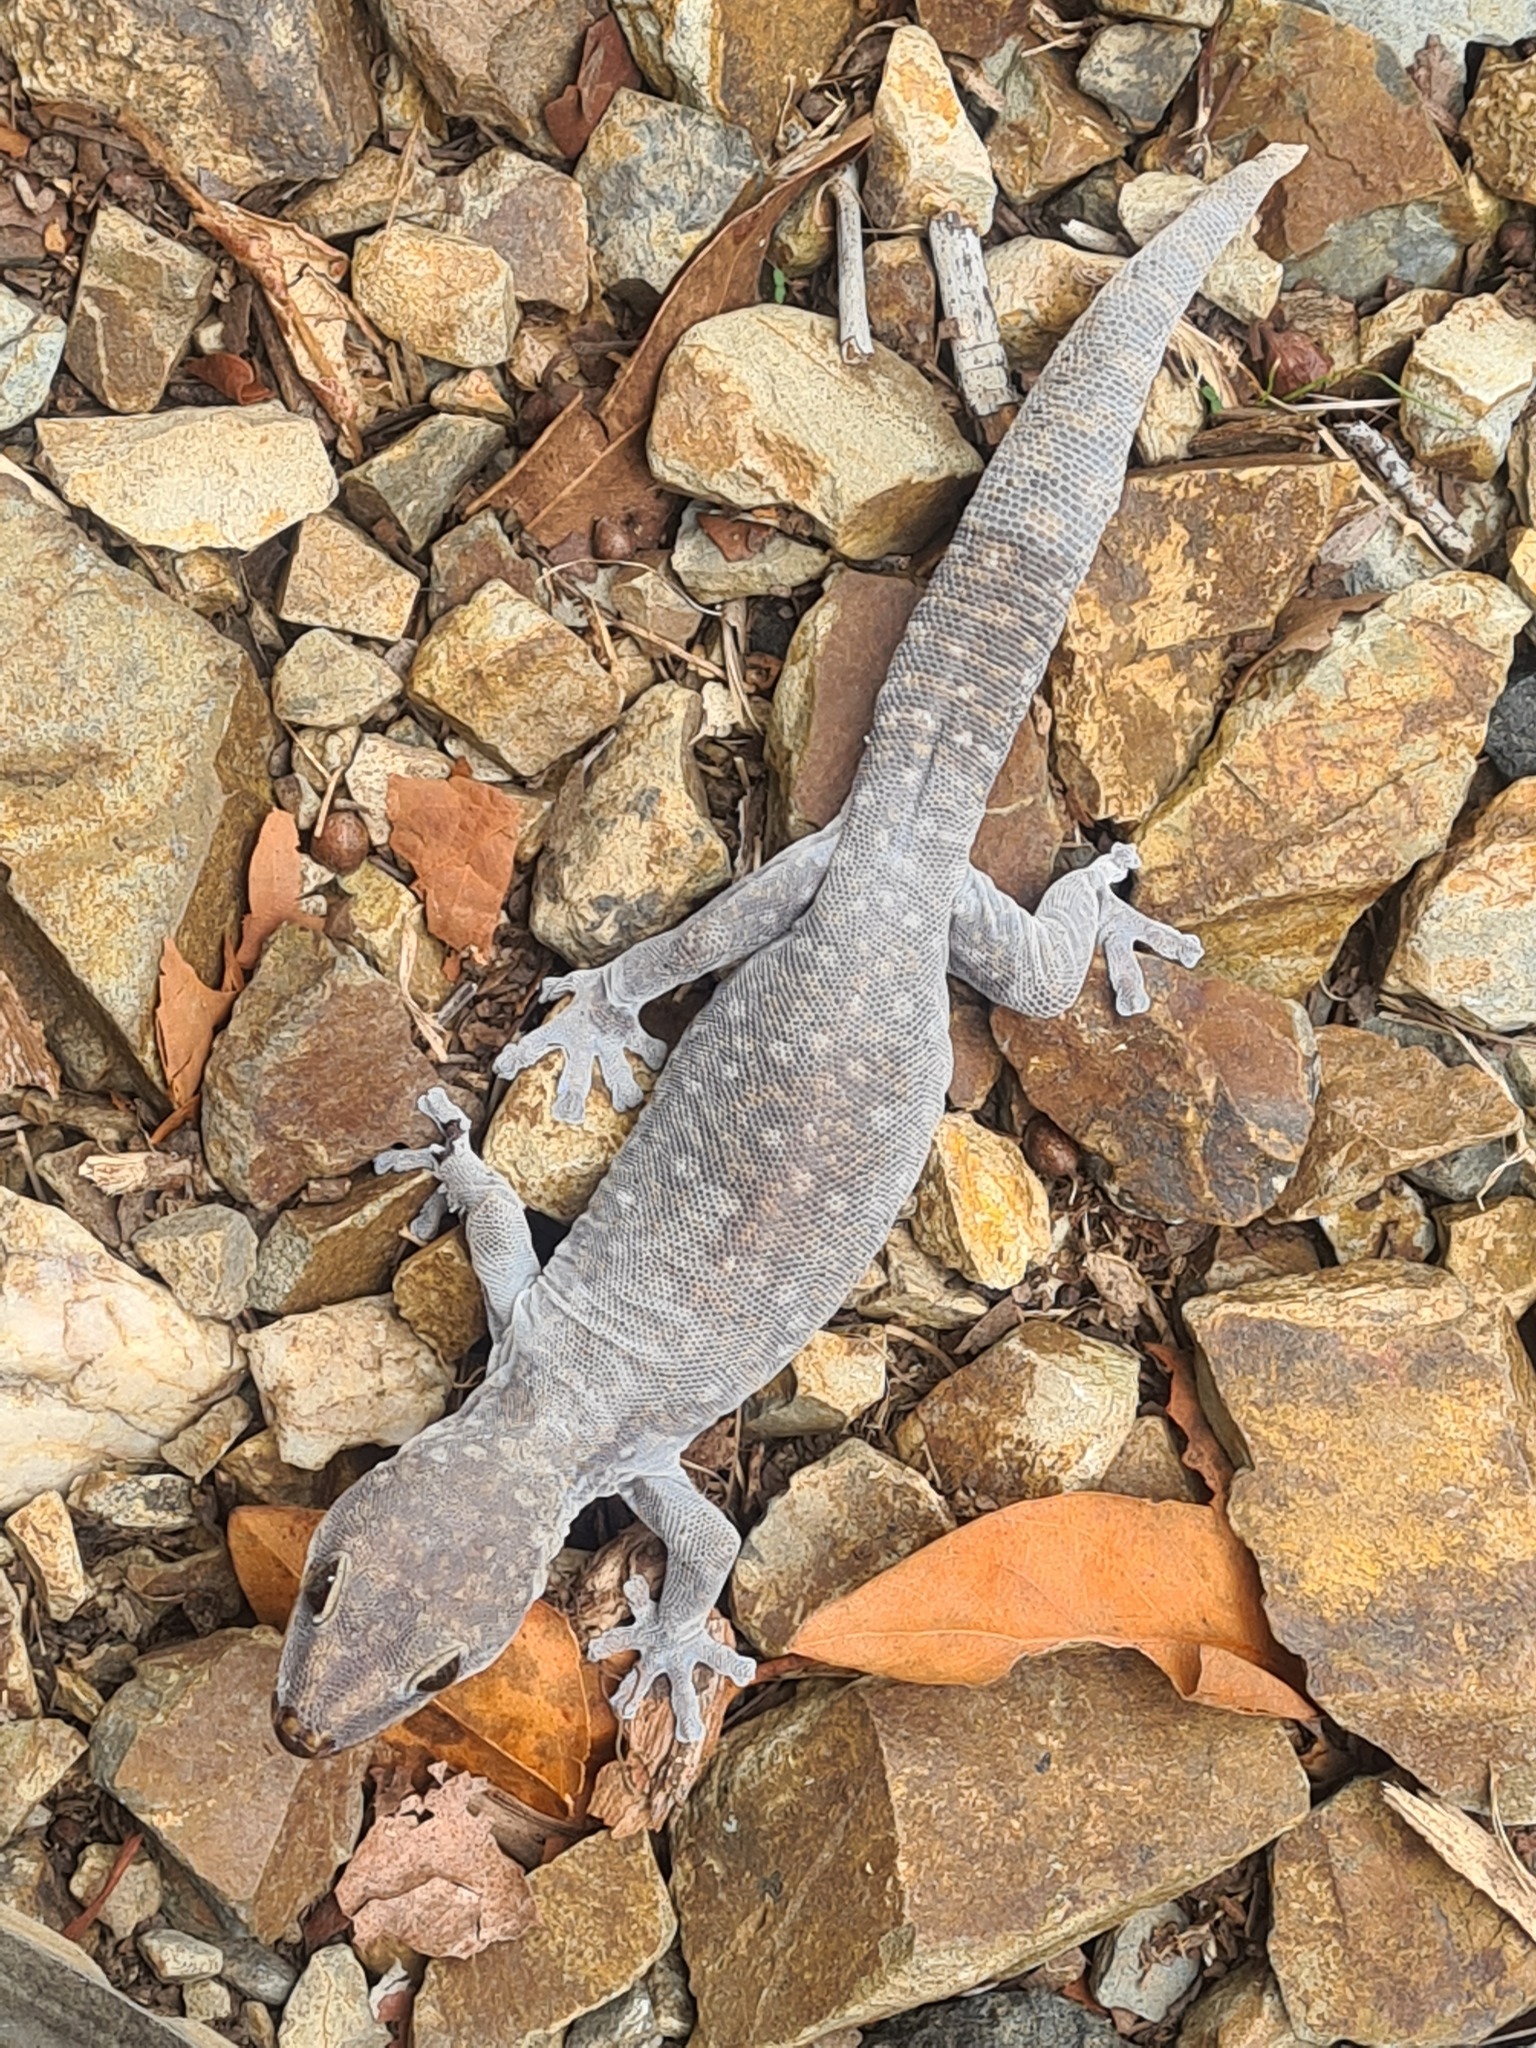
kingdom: Animalia
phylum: Chordata
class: Squamata
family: Diplodactylidae
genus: Oedura
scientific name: Oedura tryoni
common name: Southern spotted velvet gecko
